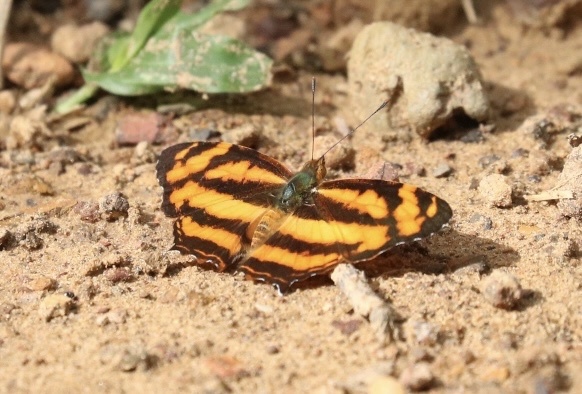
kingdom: Animalia
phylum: Arthropoda
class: Insecta
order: Lepidoptera
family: Nymphalidae
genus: Symbrenthia
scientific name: Symbrenthia hypselis
